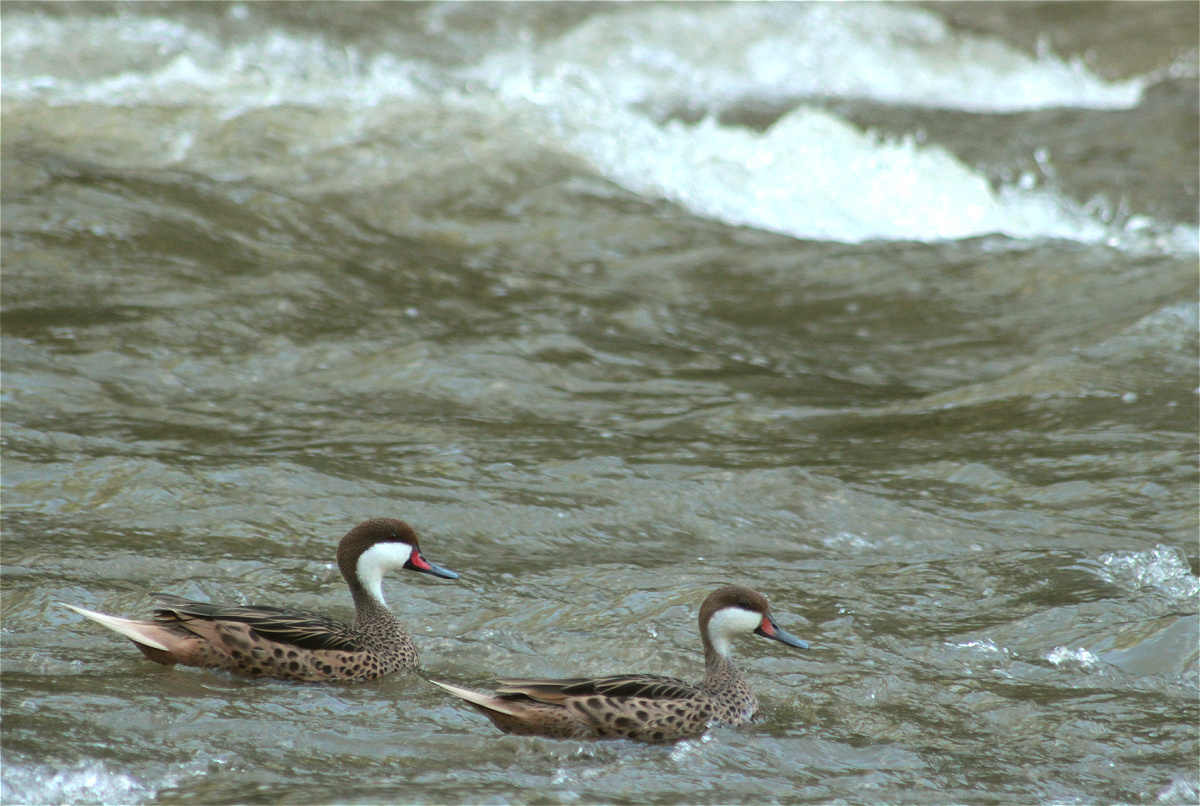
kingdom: Animalia
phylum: Chordata
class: Aves
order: Anseriformes
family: Anatidae
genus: Anas
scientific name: Anas bahamensis
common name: White-cheeked pintail
